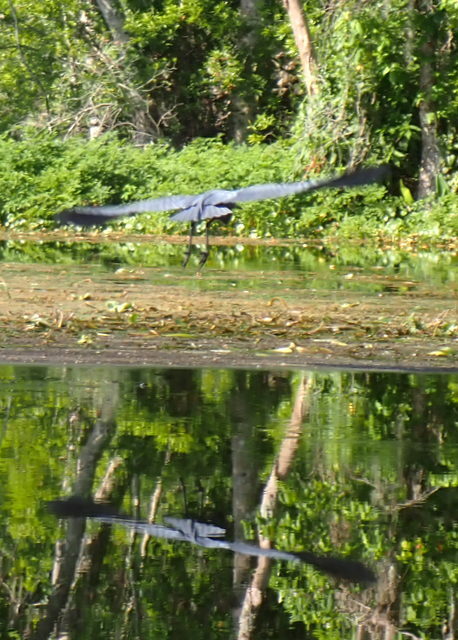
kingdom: Animalia
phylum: Chordata
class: Aves
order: Pelecaniformes
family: Ardeidae
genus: Egretta
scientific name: Egretta caerulea
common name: Little blue heron
